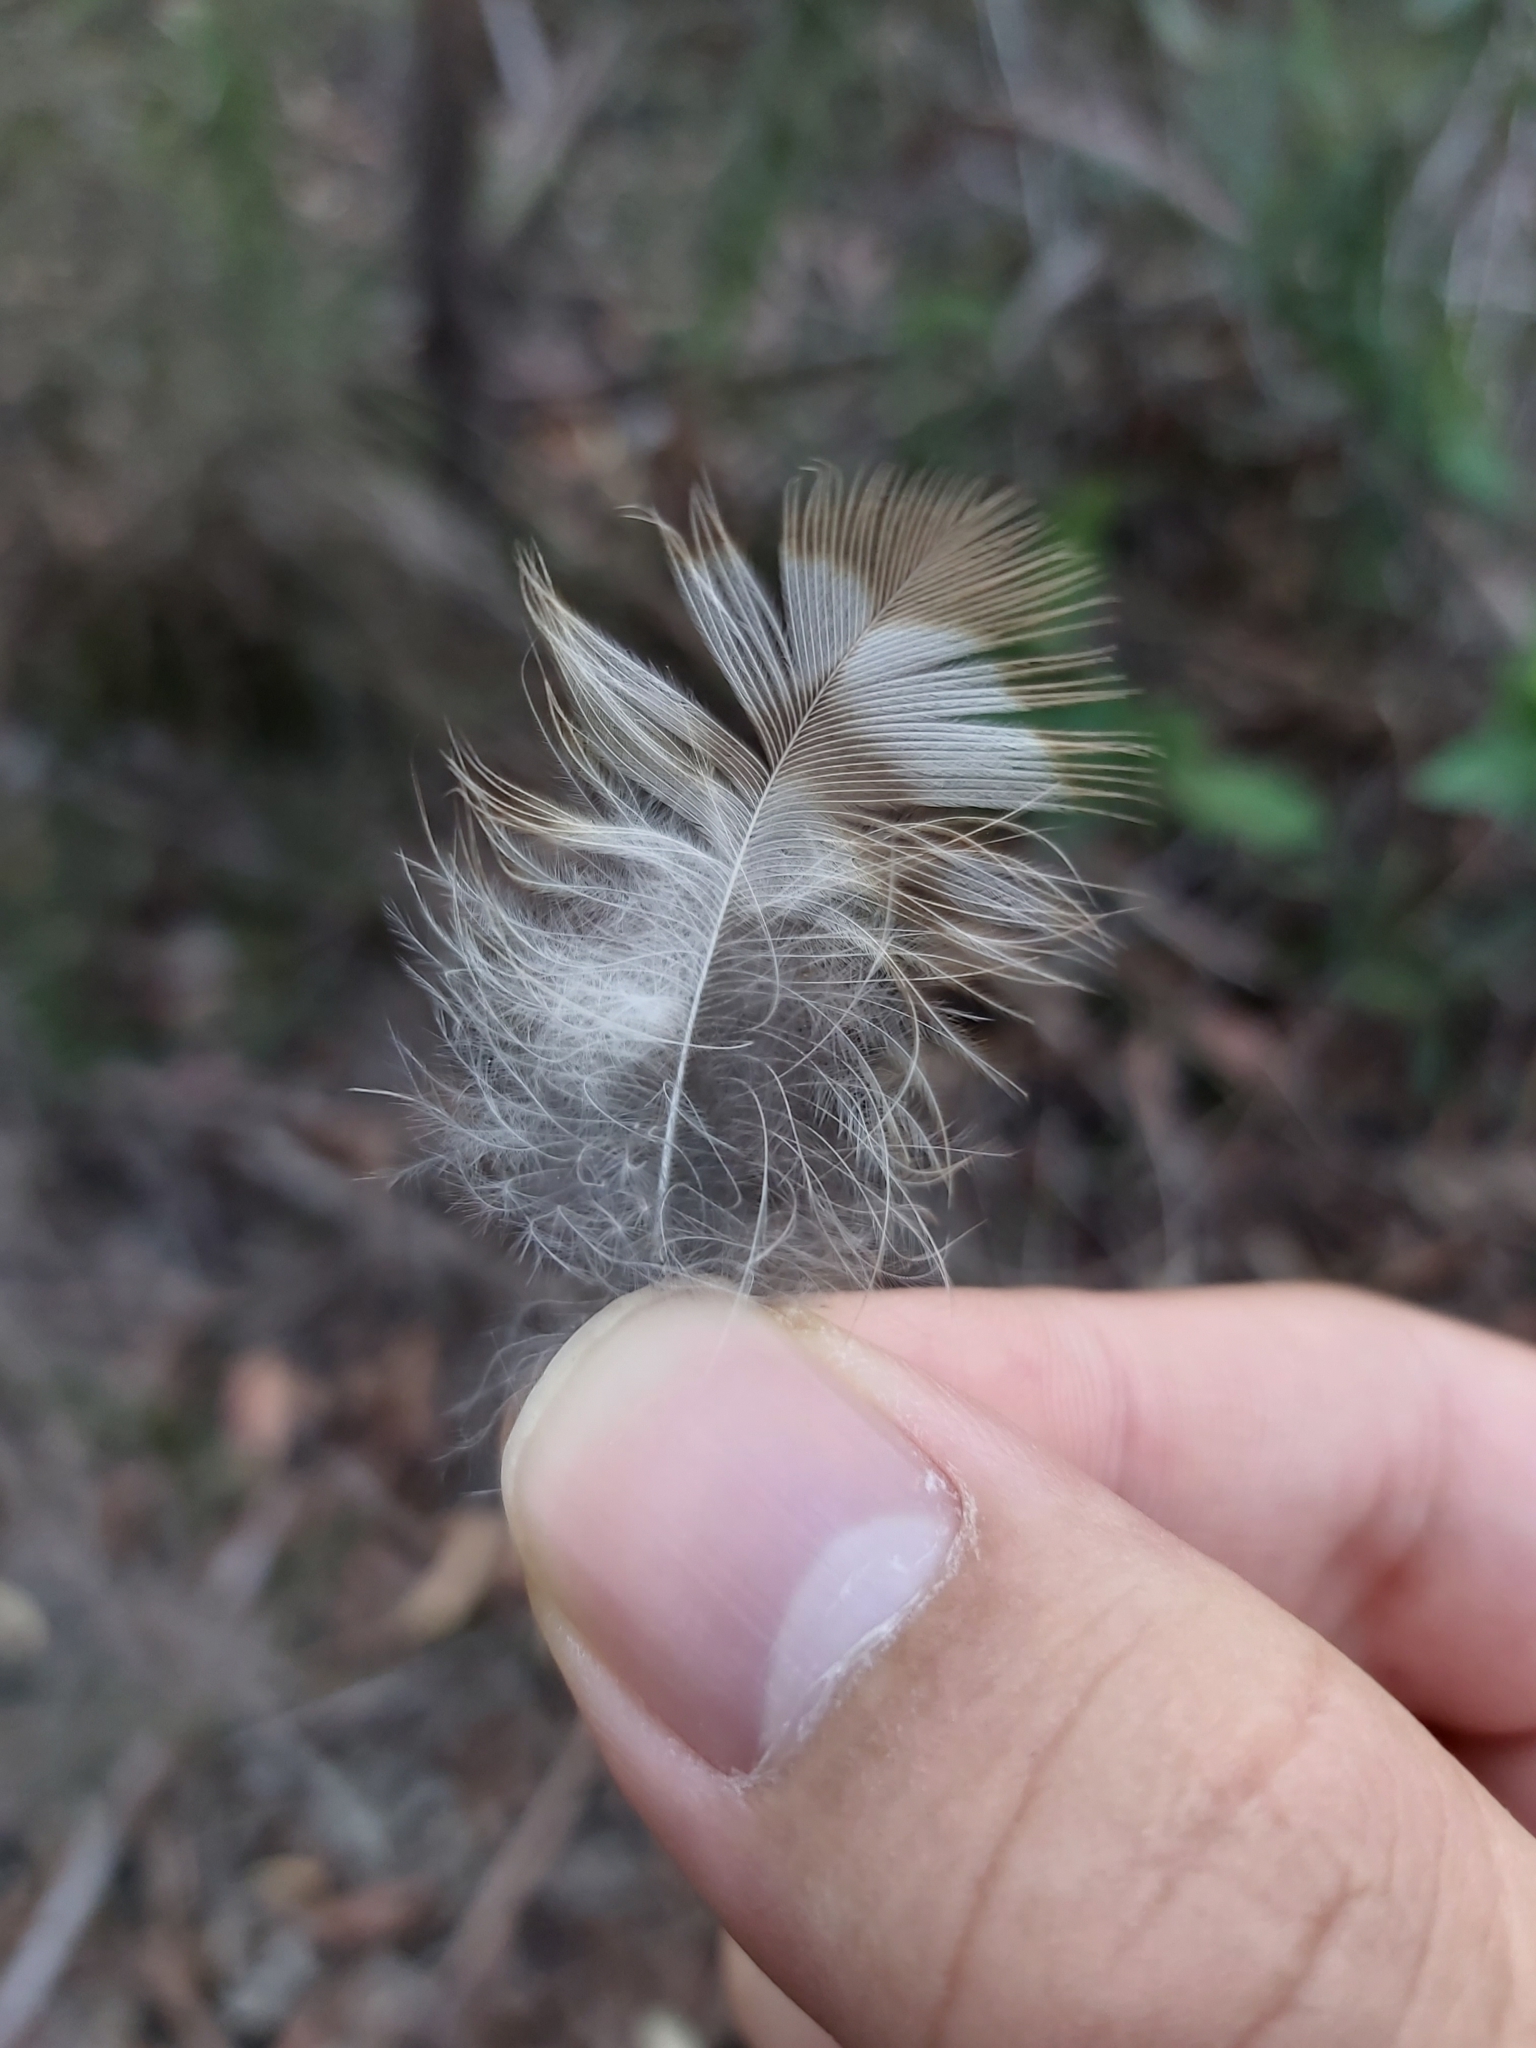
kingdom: Animalia
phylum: Chordata
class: Aves
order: Strigiformes
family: Strigidae
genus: Ninox
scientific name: Ninox boobook
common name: Southern boobook
